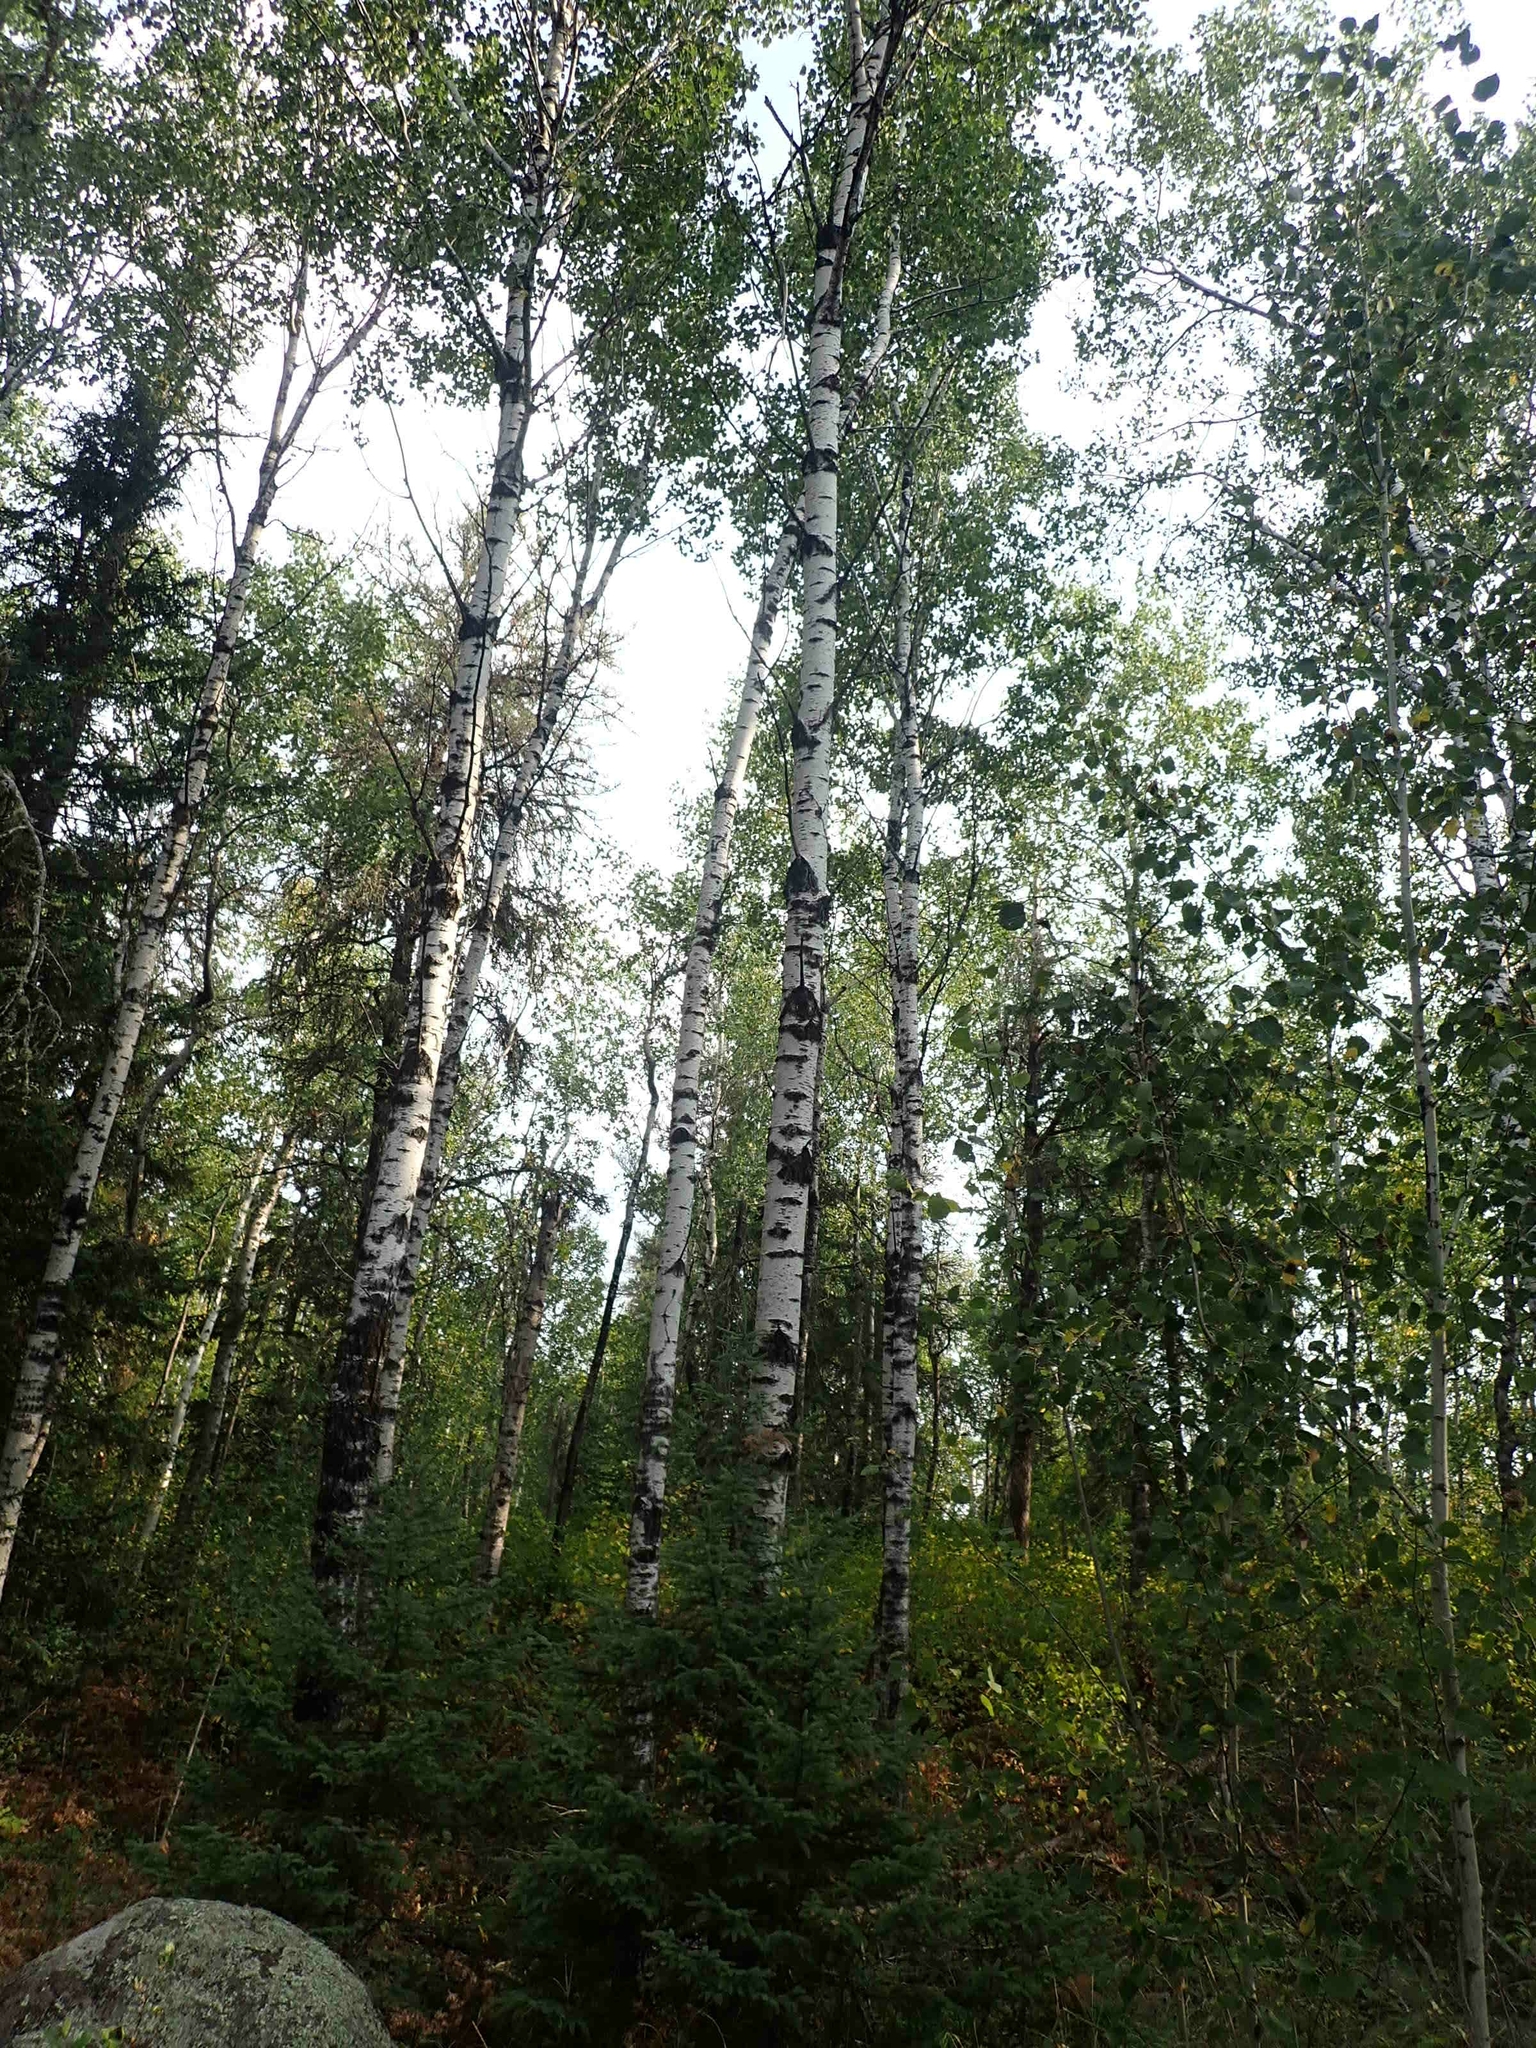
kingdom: Plantae
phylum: Tracheophyta
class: Magnoliopsida
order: Malpighiales
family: Salicaceae
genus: Populus
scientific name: Populus tremuloides
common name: Quaking aspen
